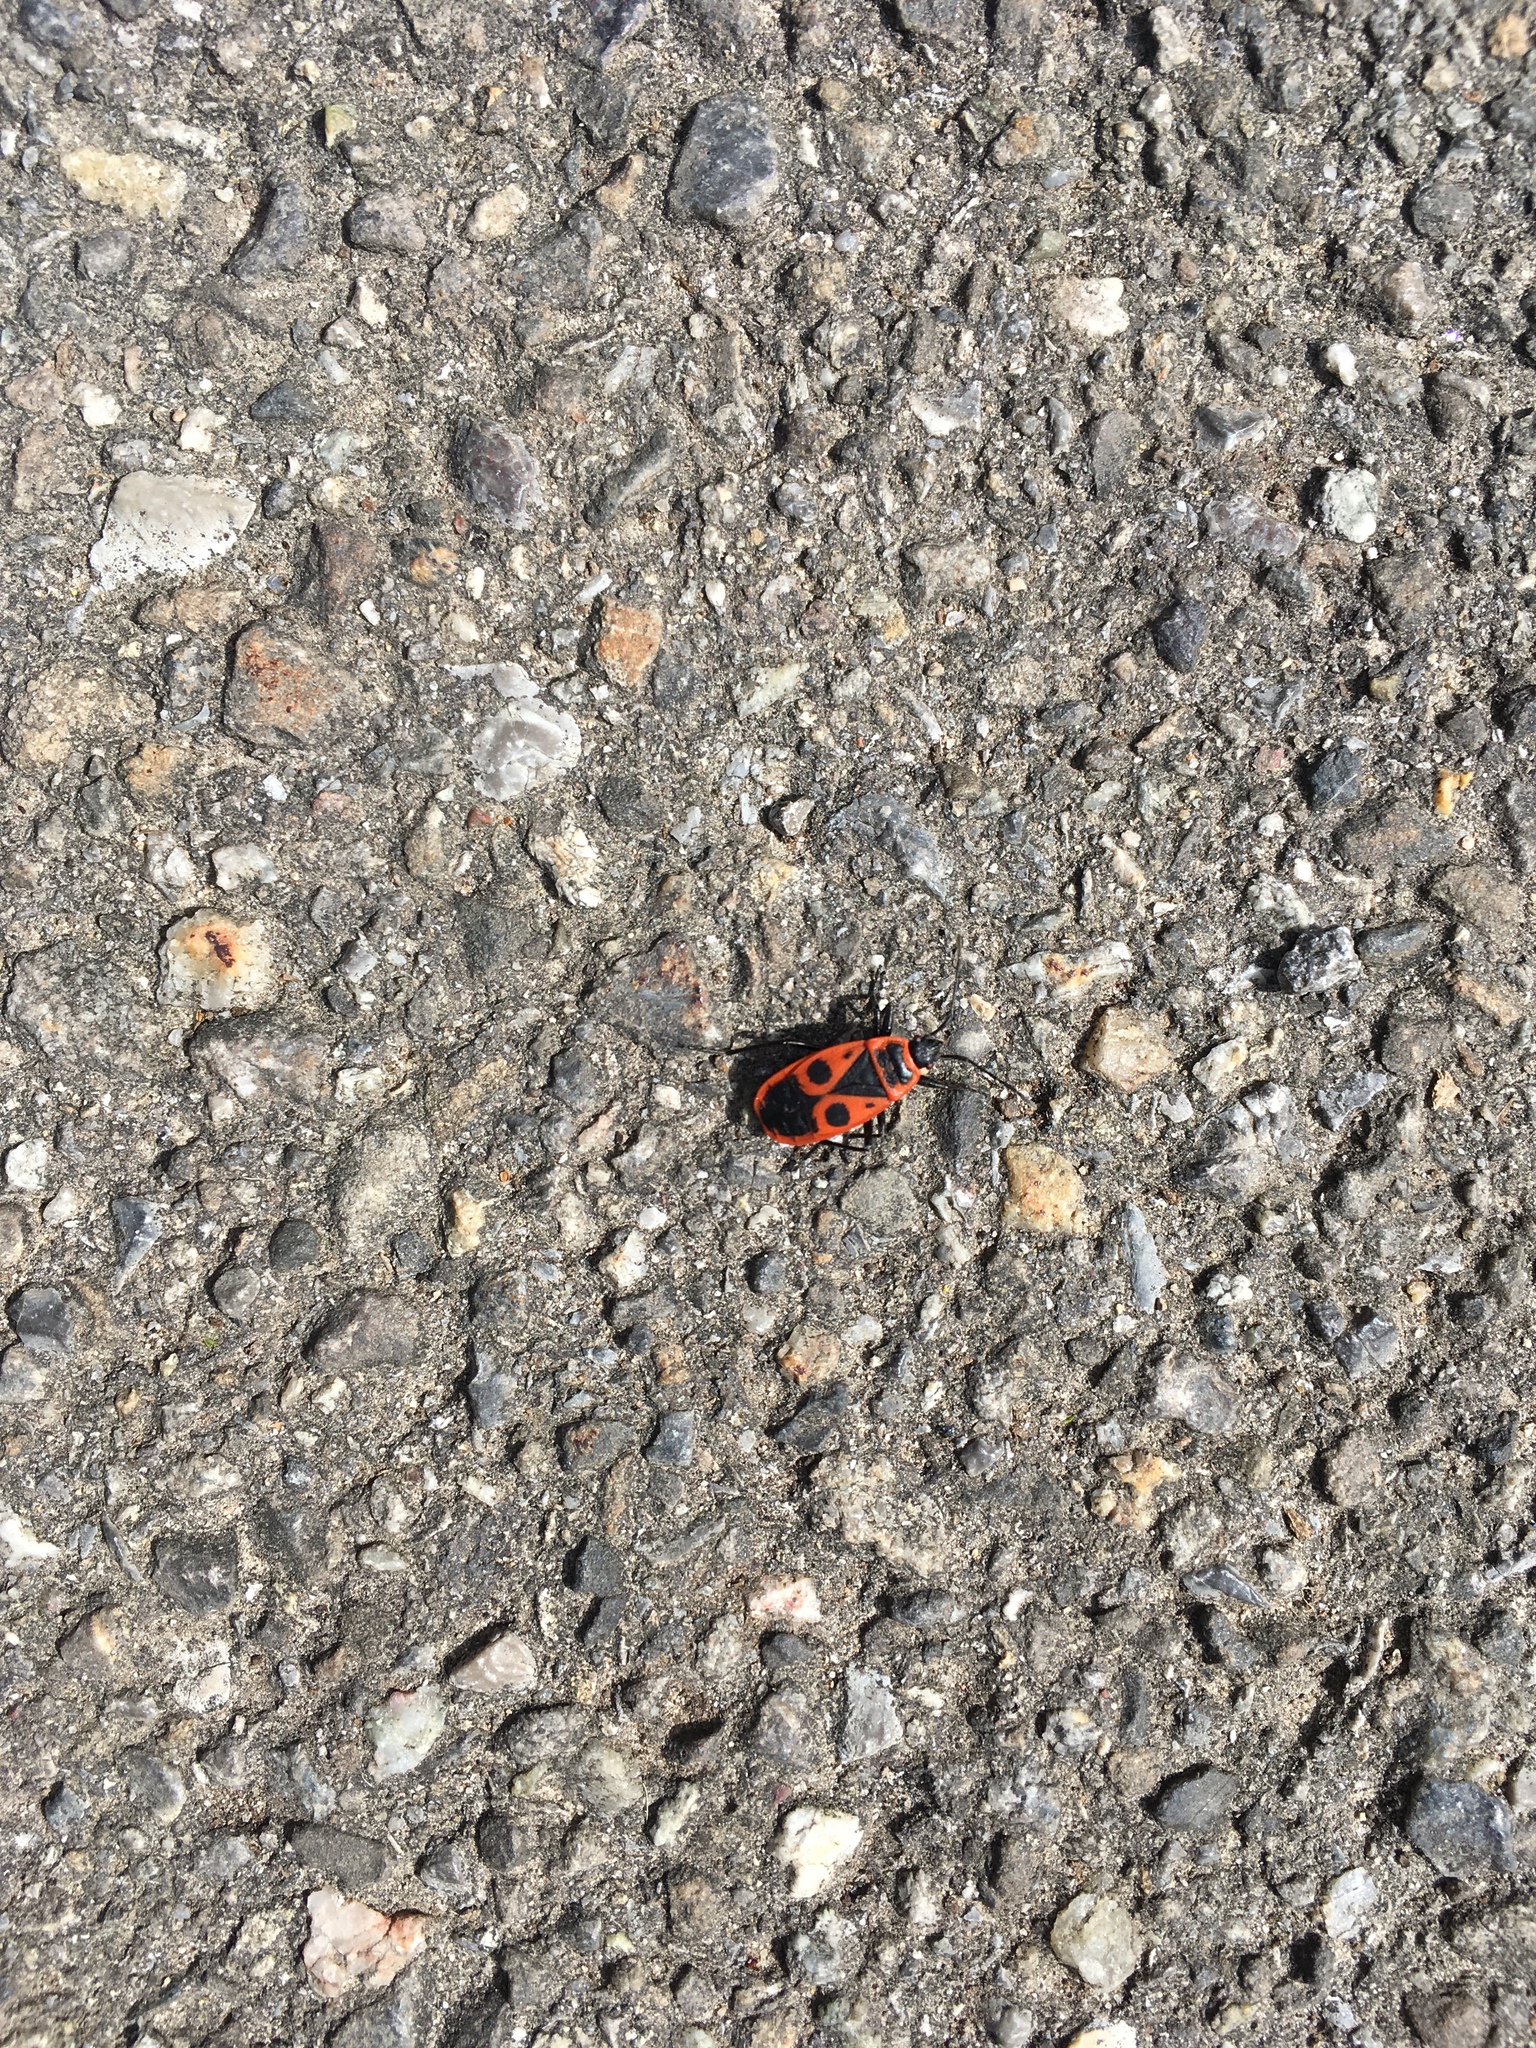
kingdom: Animalia
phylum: Arthropoda
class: Insecta
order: Hemiptera
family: Pyrrhocoridae
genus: Pyrrhocoris
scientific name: Pyrrhocoris apterus
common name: Firebug
